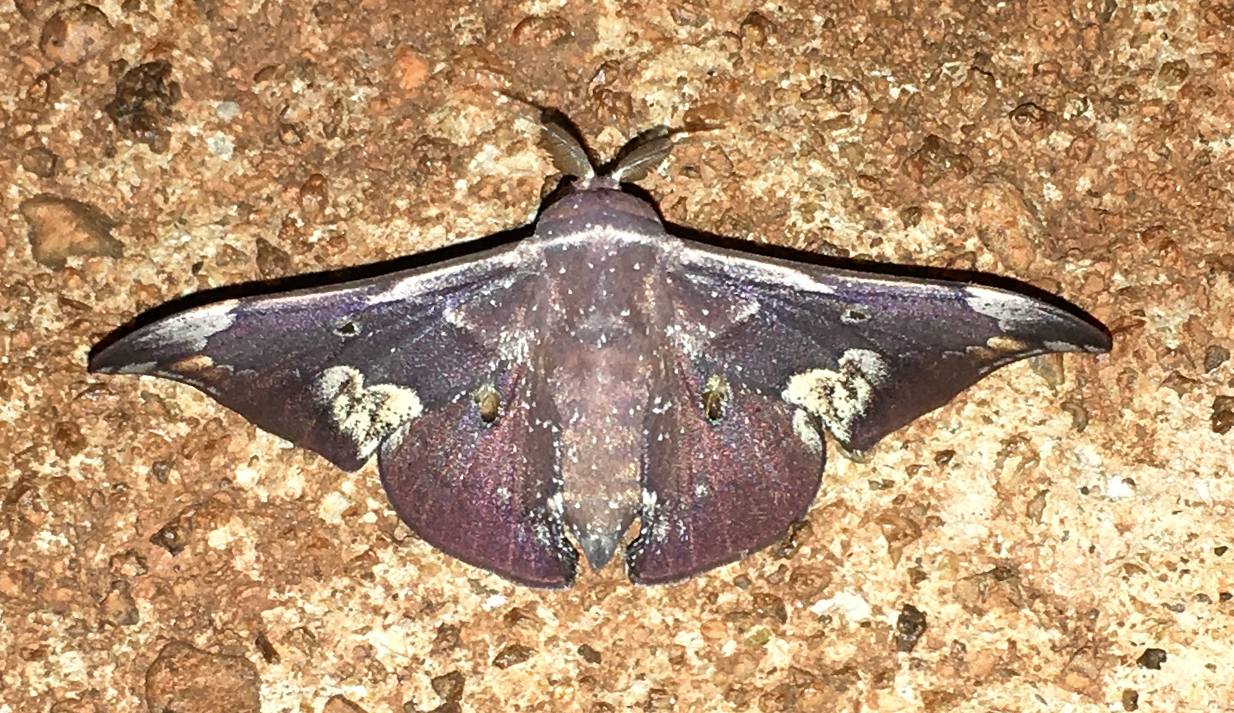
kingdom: Animalia
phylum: Arthropoda
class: Insecta
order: Lepidoptera
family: Mimallonidae
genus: Roelmana
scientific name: Roelmana maloba
